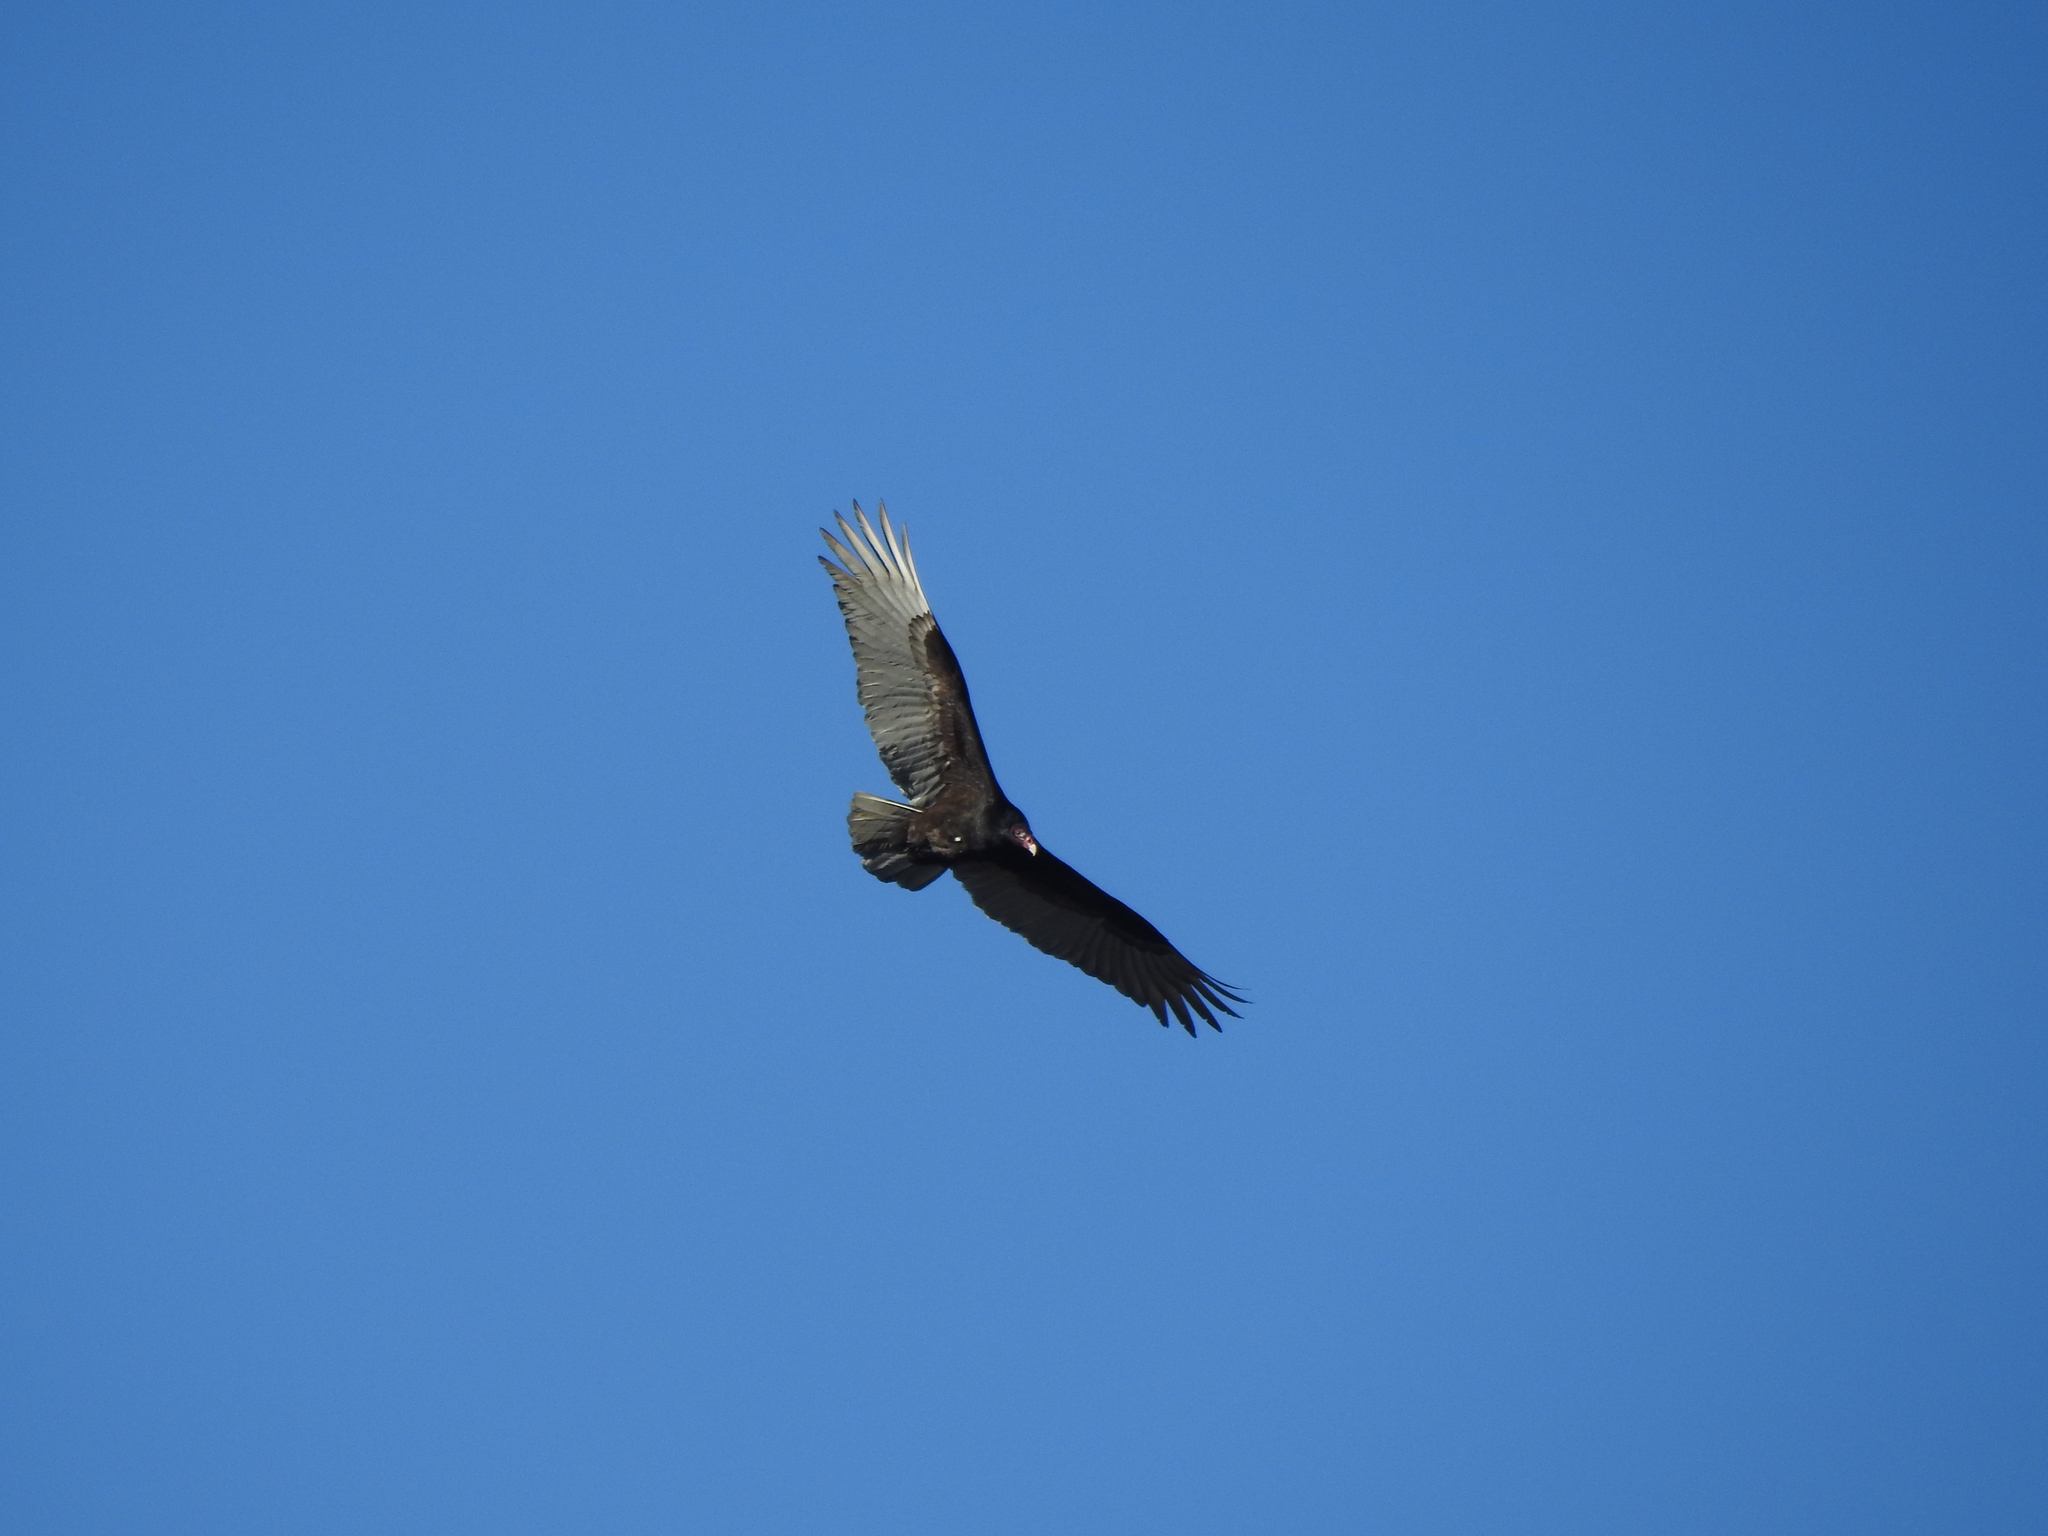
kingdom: Animalia
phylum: Chordata
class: Aves
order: Accipitriformes
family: Cathartidae
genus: Cathartes
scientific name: Cathartes aura
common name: Turkey vulture
